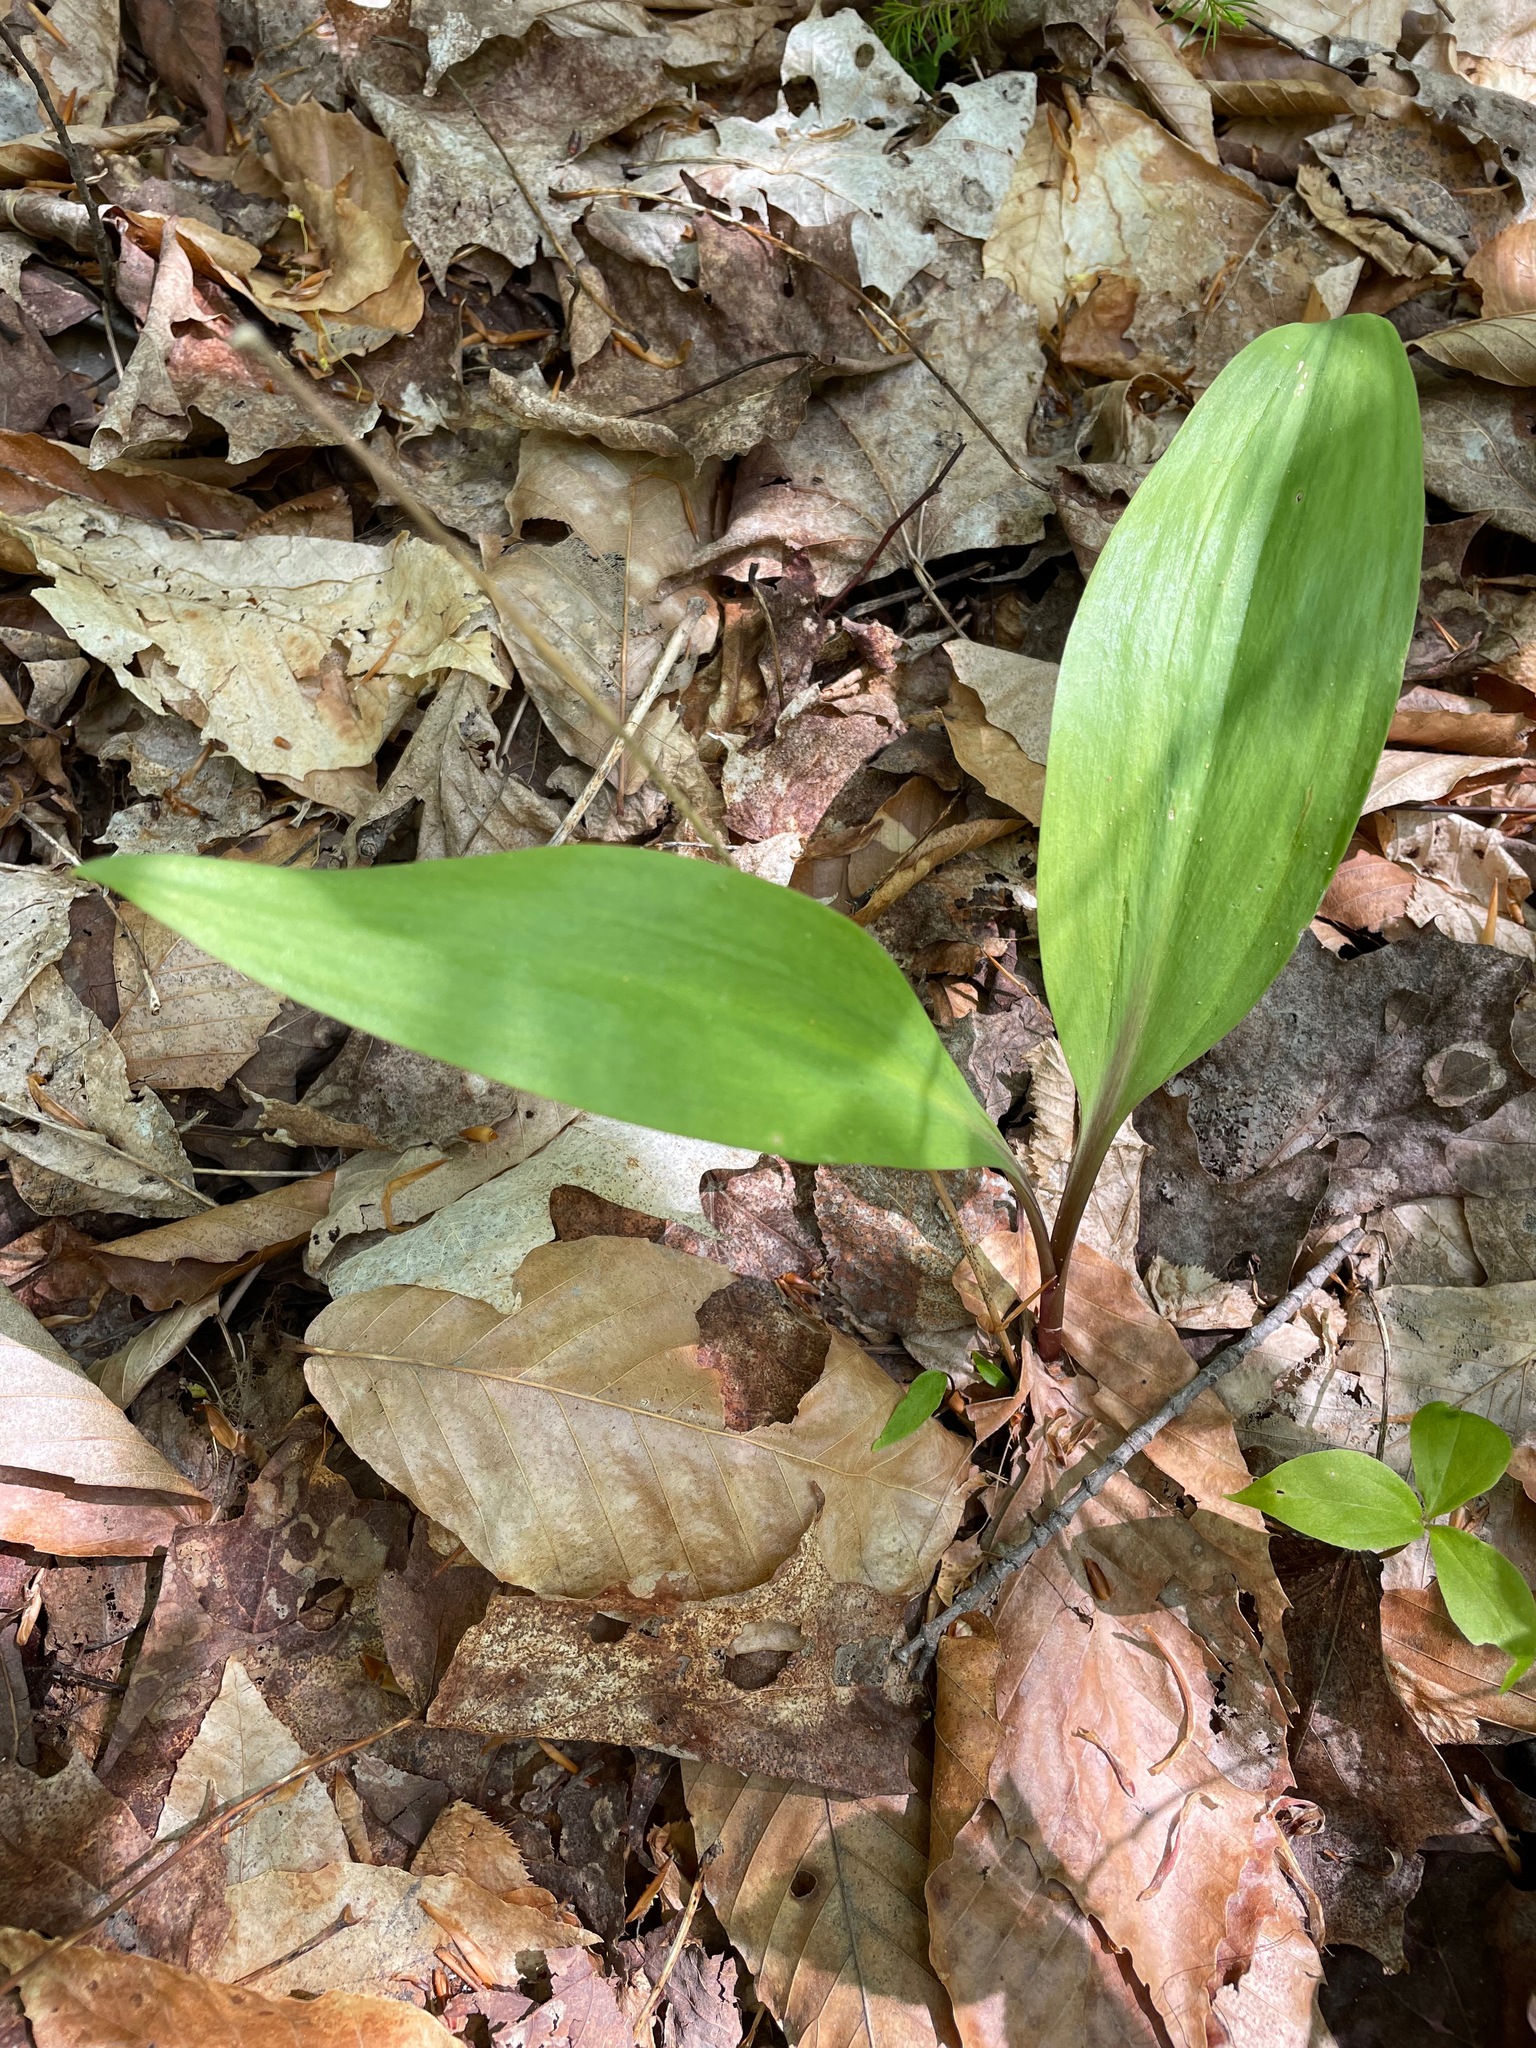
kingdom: Plantae
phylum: Tracheophyta
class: Liliopsida
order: Asparagales
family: Amaryllidaceae
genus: Allium
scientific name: Allium tricoccum
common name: Ramp
